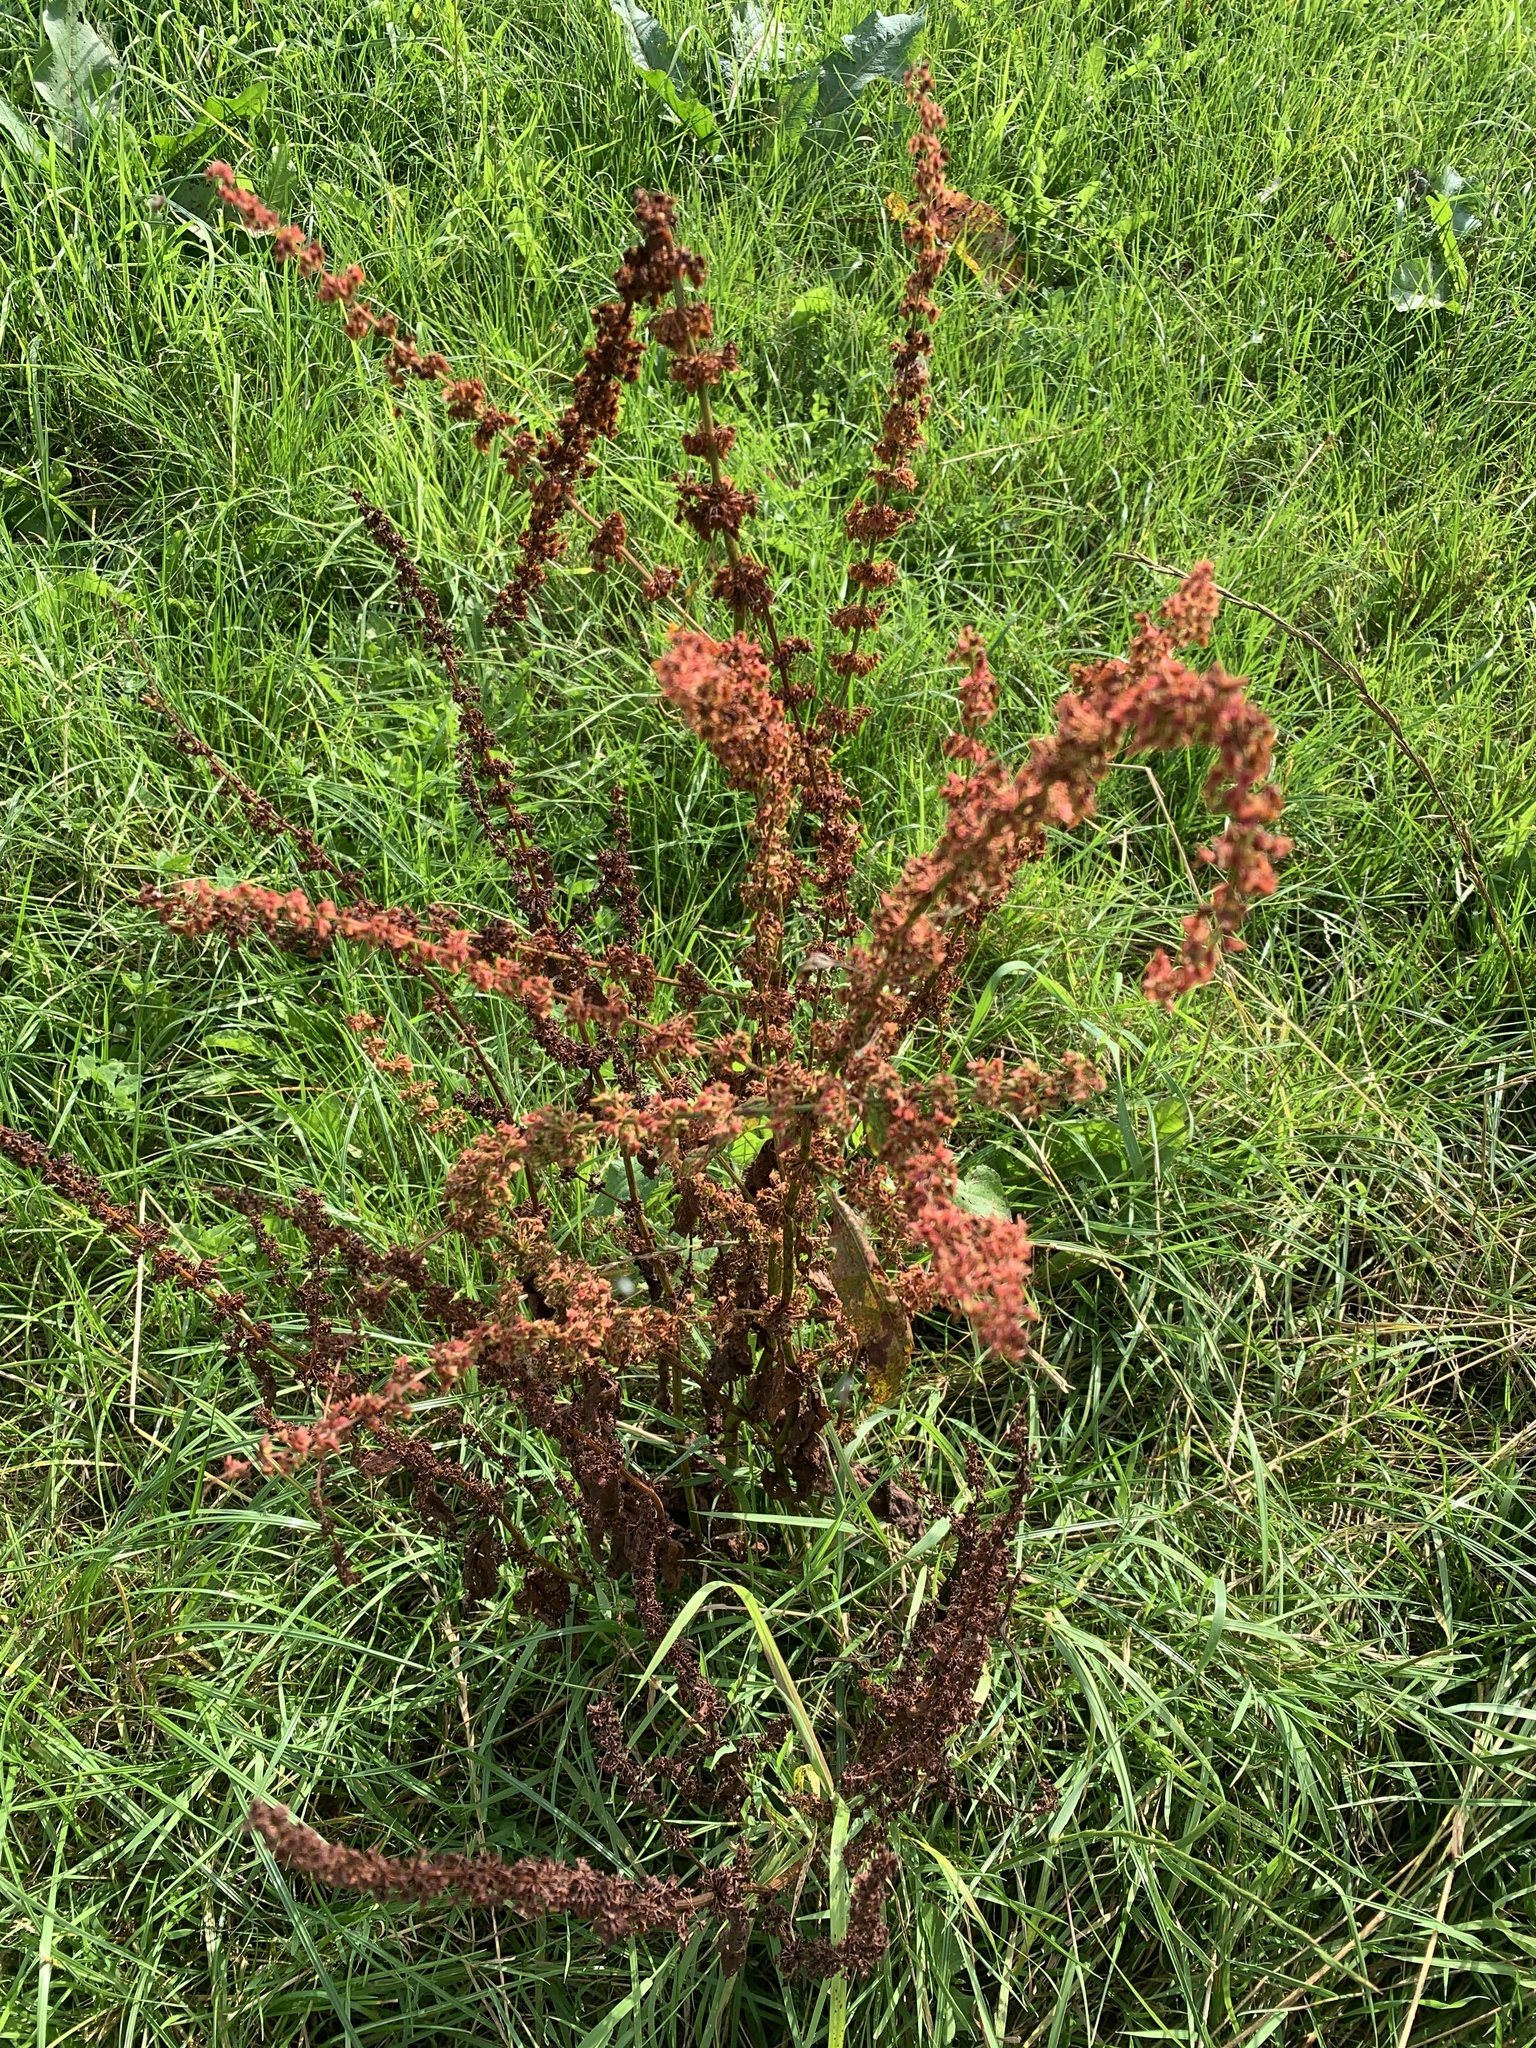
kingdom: Plantae
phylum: Tracheophyta
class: Magnoliopsida
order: Caryophyllales
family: Polygonaceae
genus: Rumex
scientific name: Rumex crispus
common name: Curled dock
